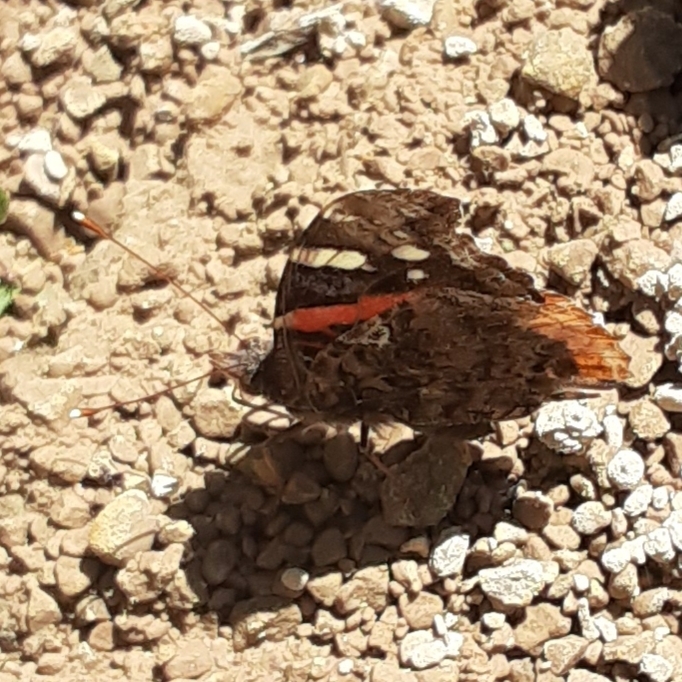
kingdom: Animalia
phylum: Arthropoda
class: Insecta
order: Lepidoptera
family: Nymphalidae
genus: Vanessa
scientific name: Vanessa atalanta
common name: Red admiral
